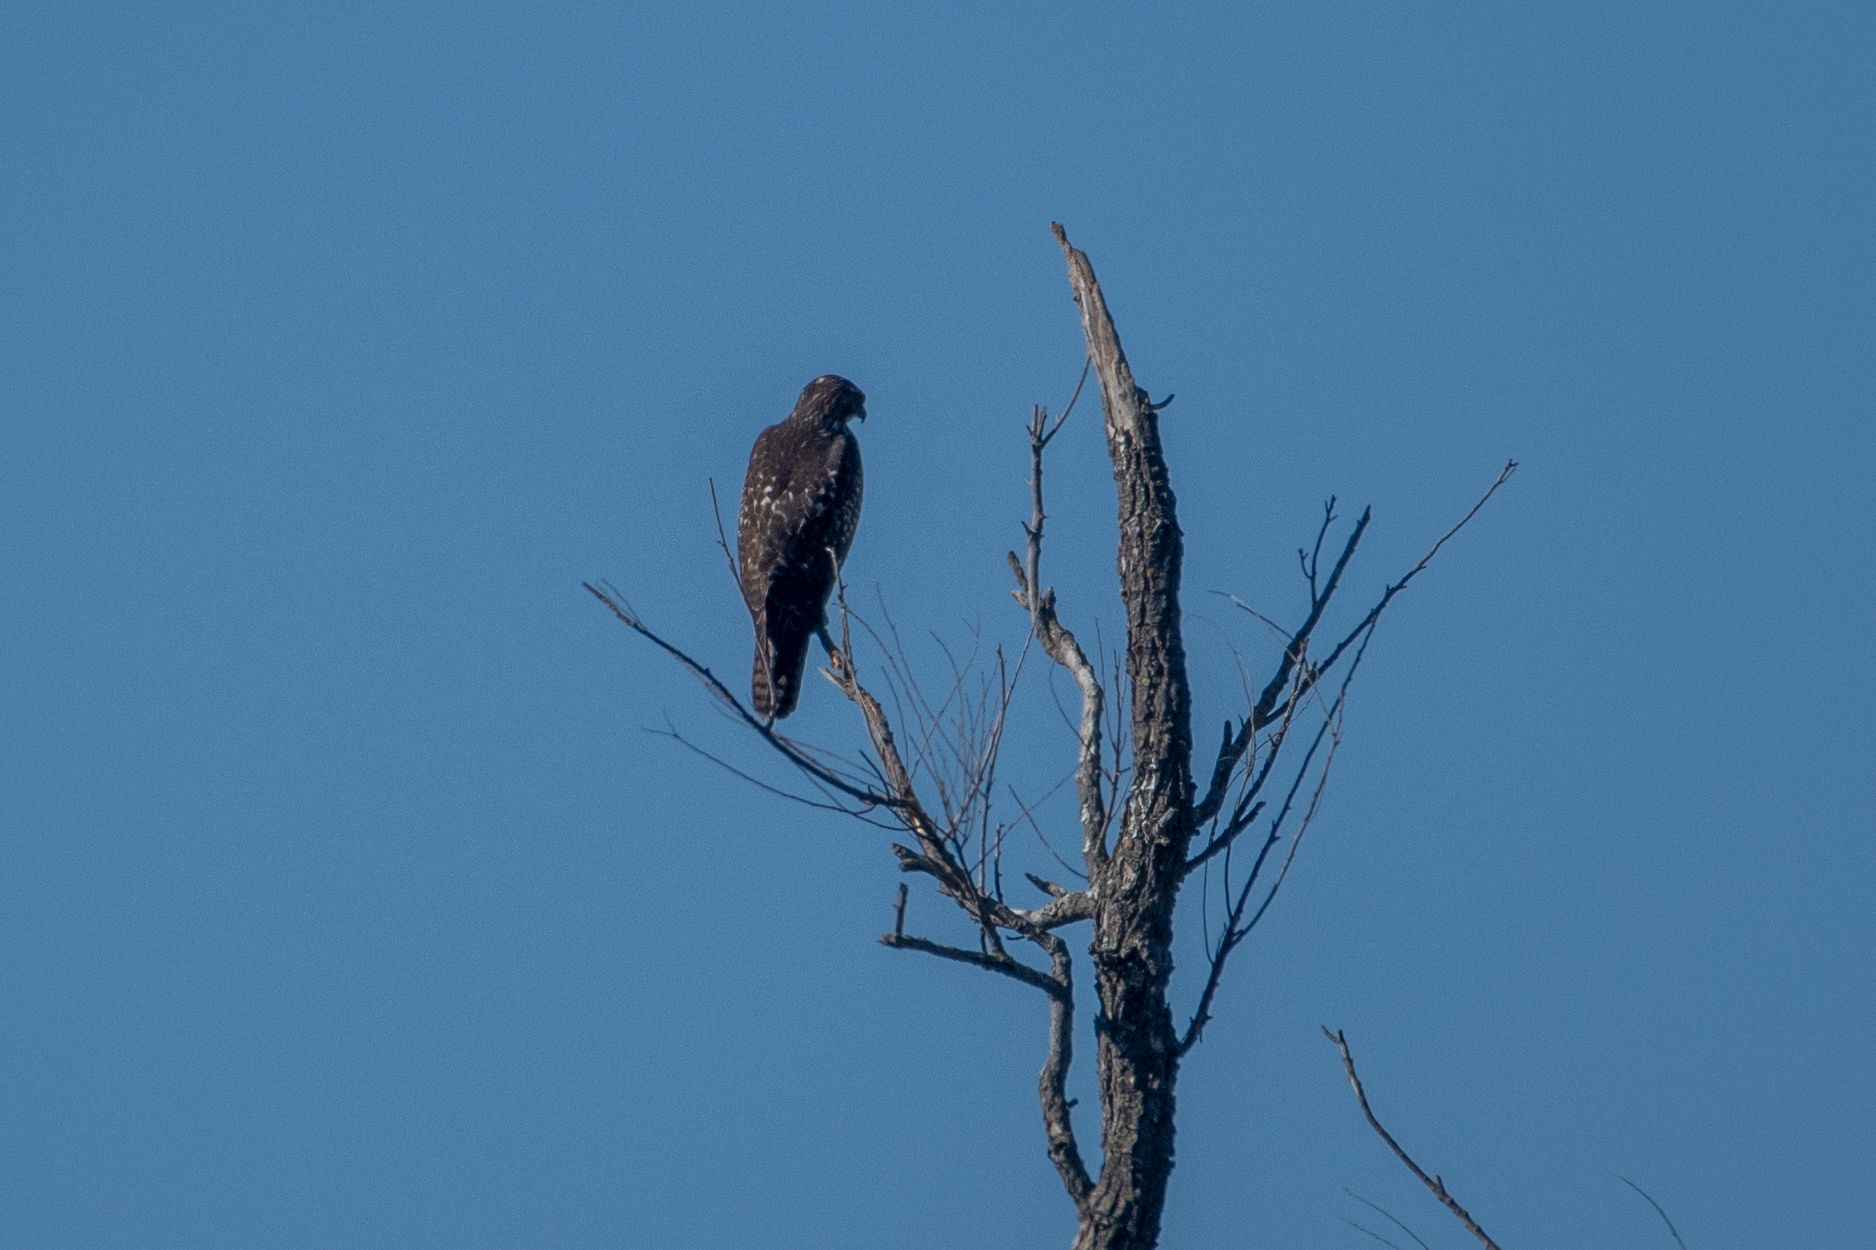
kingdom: Animalia
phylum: Chordata
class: Aves
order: Accipitriformes
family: Accipitridae
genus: Buteo
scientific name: Buteo jamaicensis
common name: Red-tailed hawk
